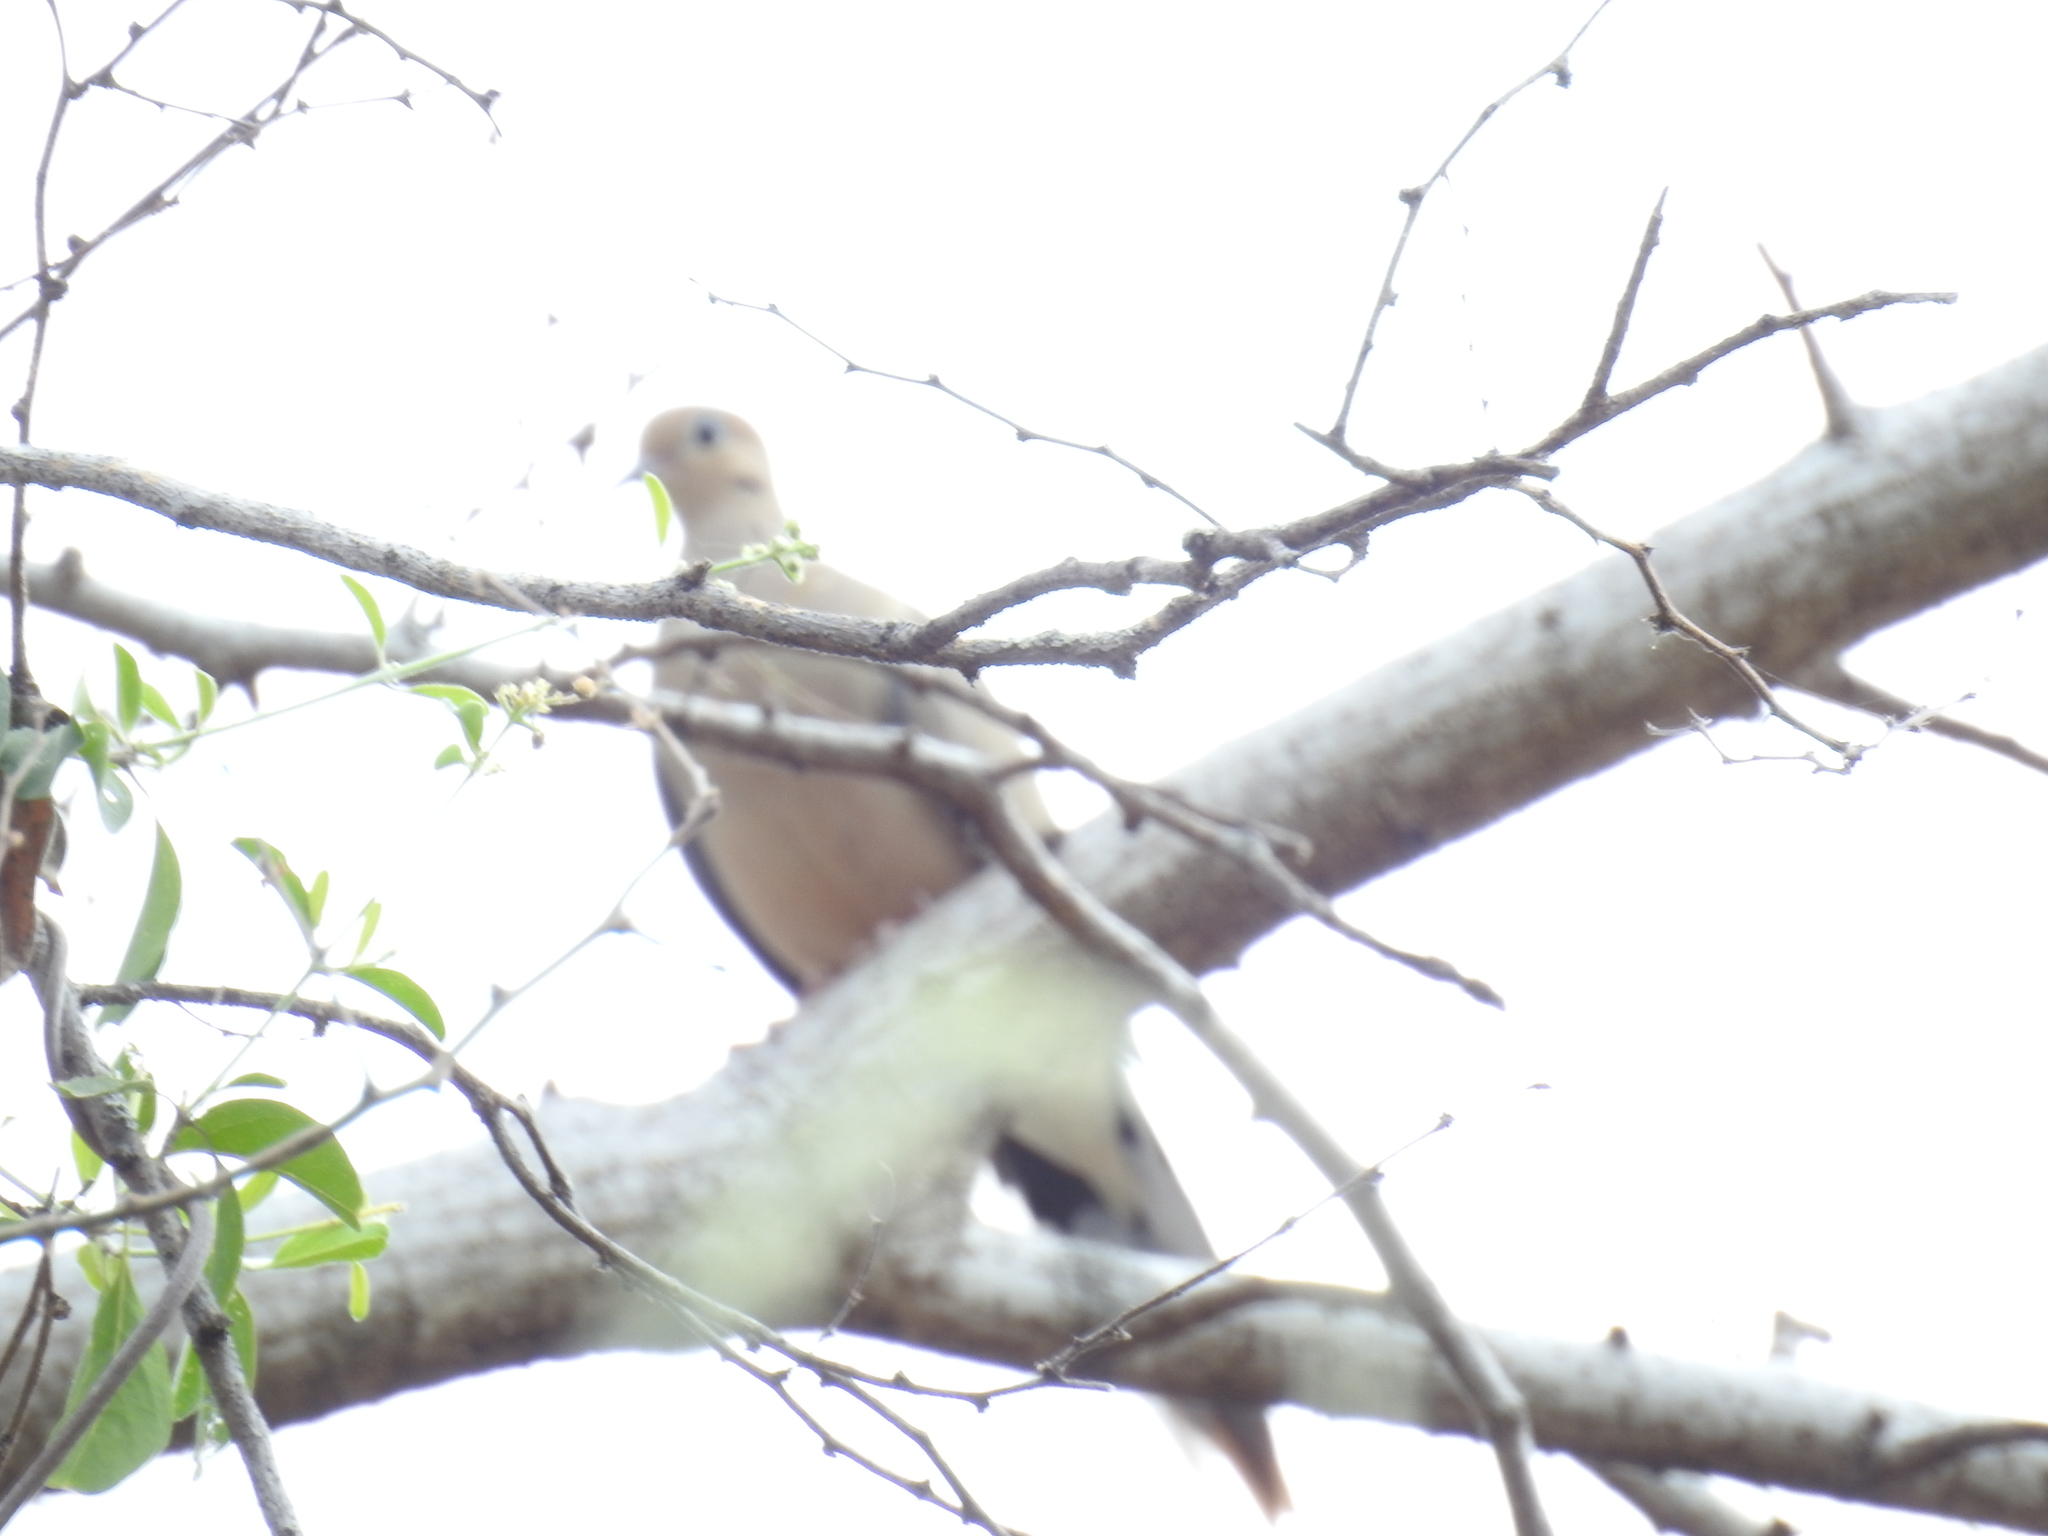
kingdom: Animalia
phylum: Chordata
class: Aves
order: Columbiformes
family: Columbidae
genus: Zenaida
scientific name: Zenaida macroura
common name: Mourning dove
